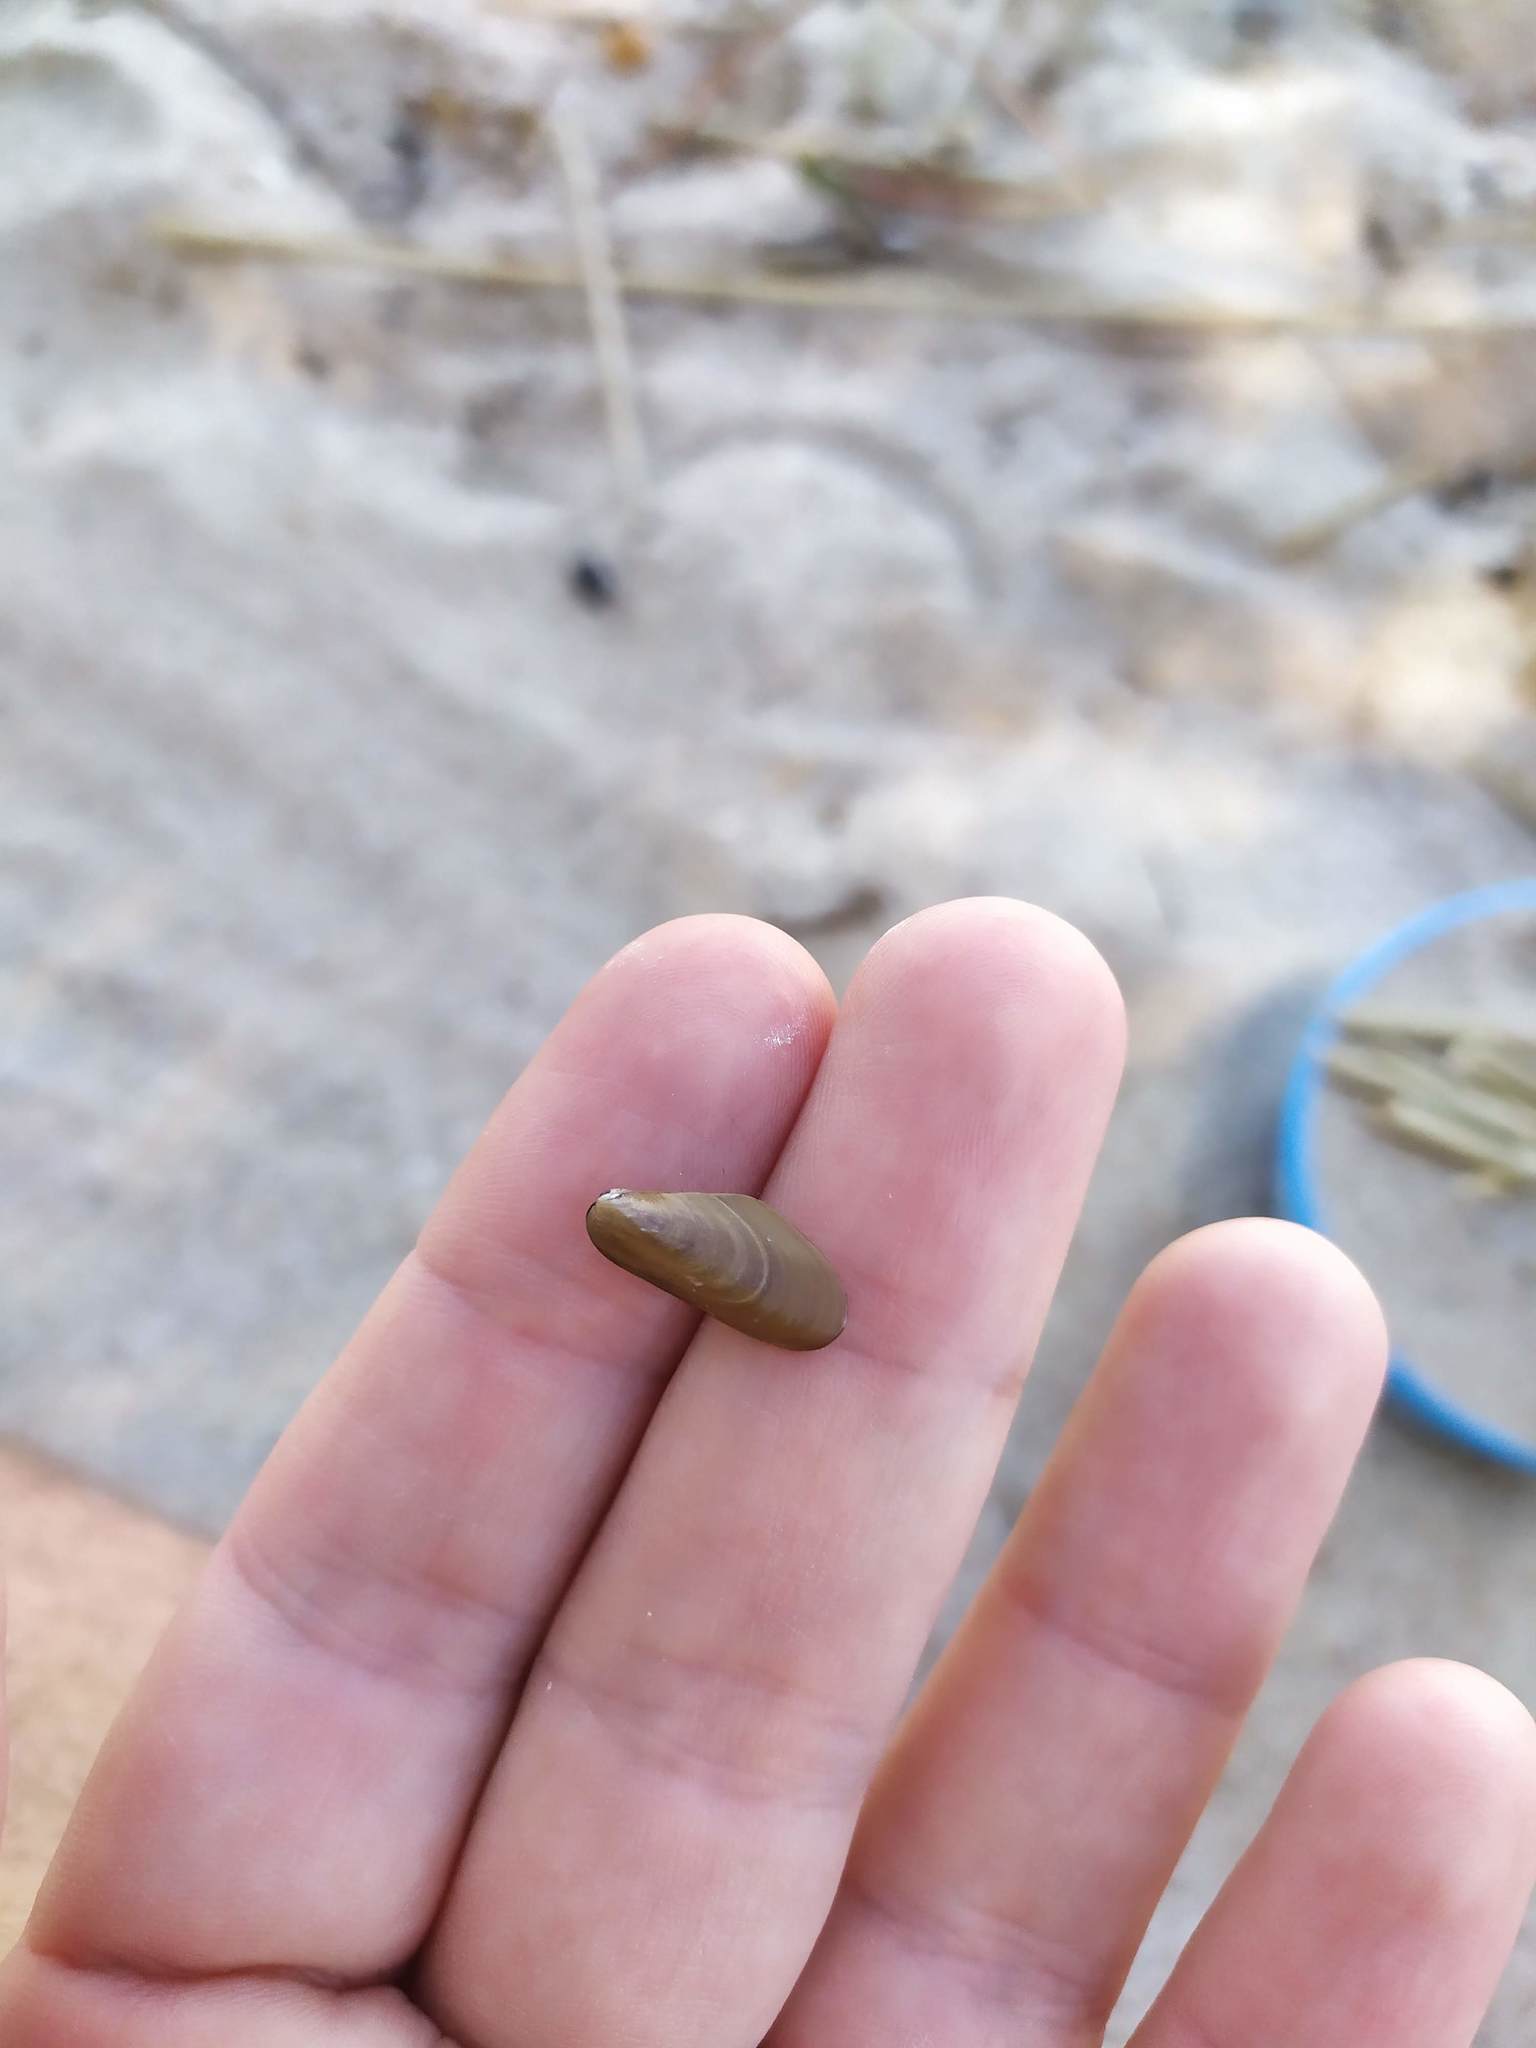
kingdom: Animalia
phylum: Mollusca
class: Bivalvia
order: Mytilida
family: Mytilidae
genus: Limnoperna
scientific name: Limnoperna fortunei
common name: Golden mussel
